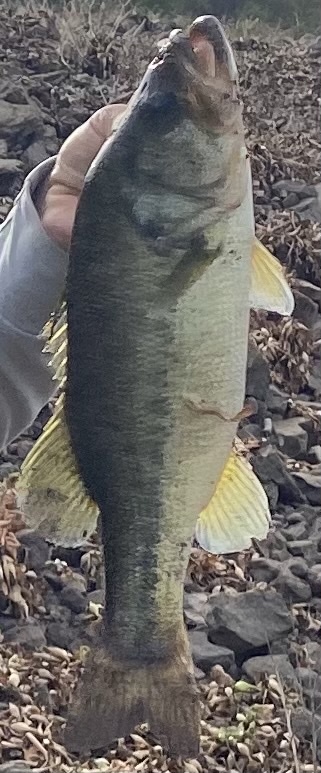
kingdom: Animalia
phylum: Chordata
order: Perciformes
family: Centrarchidae
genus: Micropterus
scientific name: Micropterus
